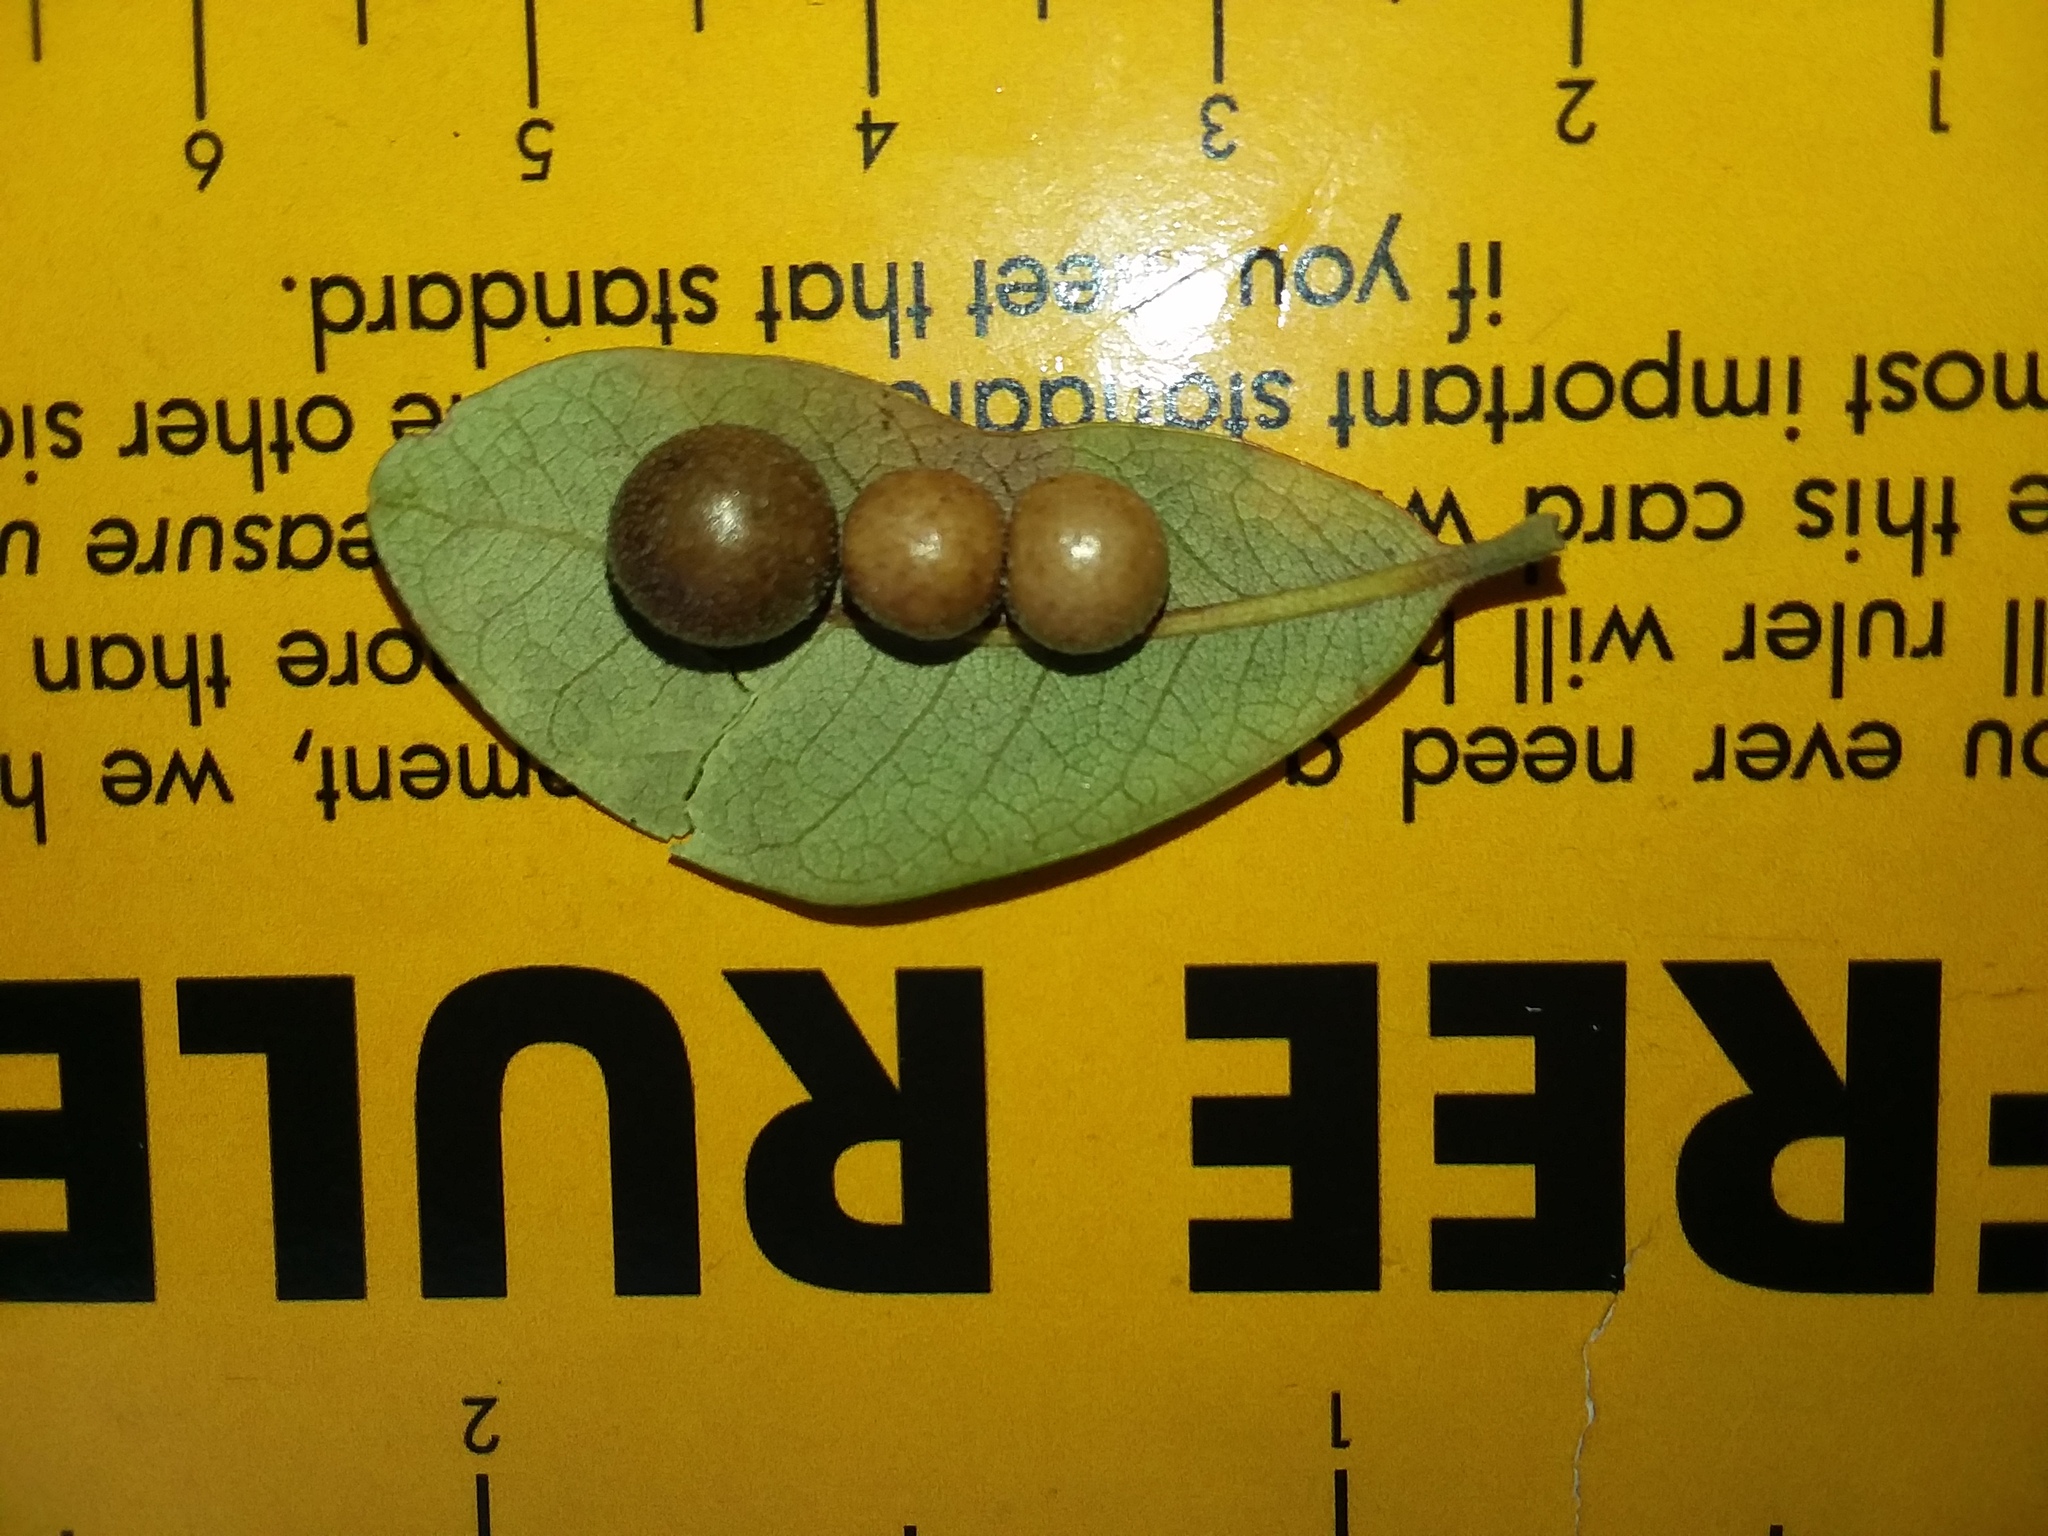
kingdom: Animalia
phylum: Arthropoda
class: Insecta
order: Hymenoptera
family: Cynipidae
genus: Belonocnema
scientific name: Belonocnema treatae
